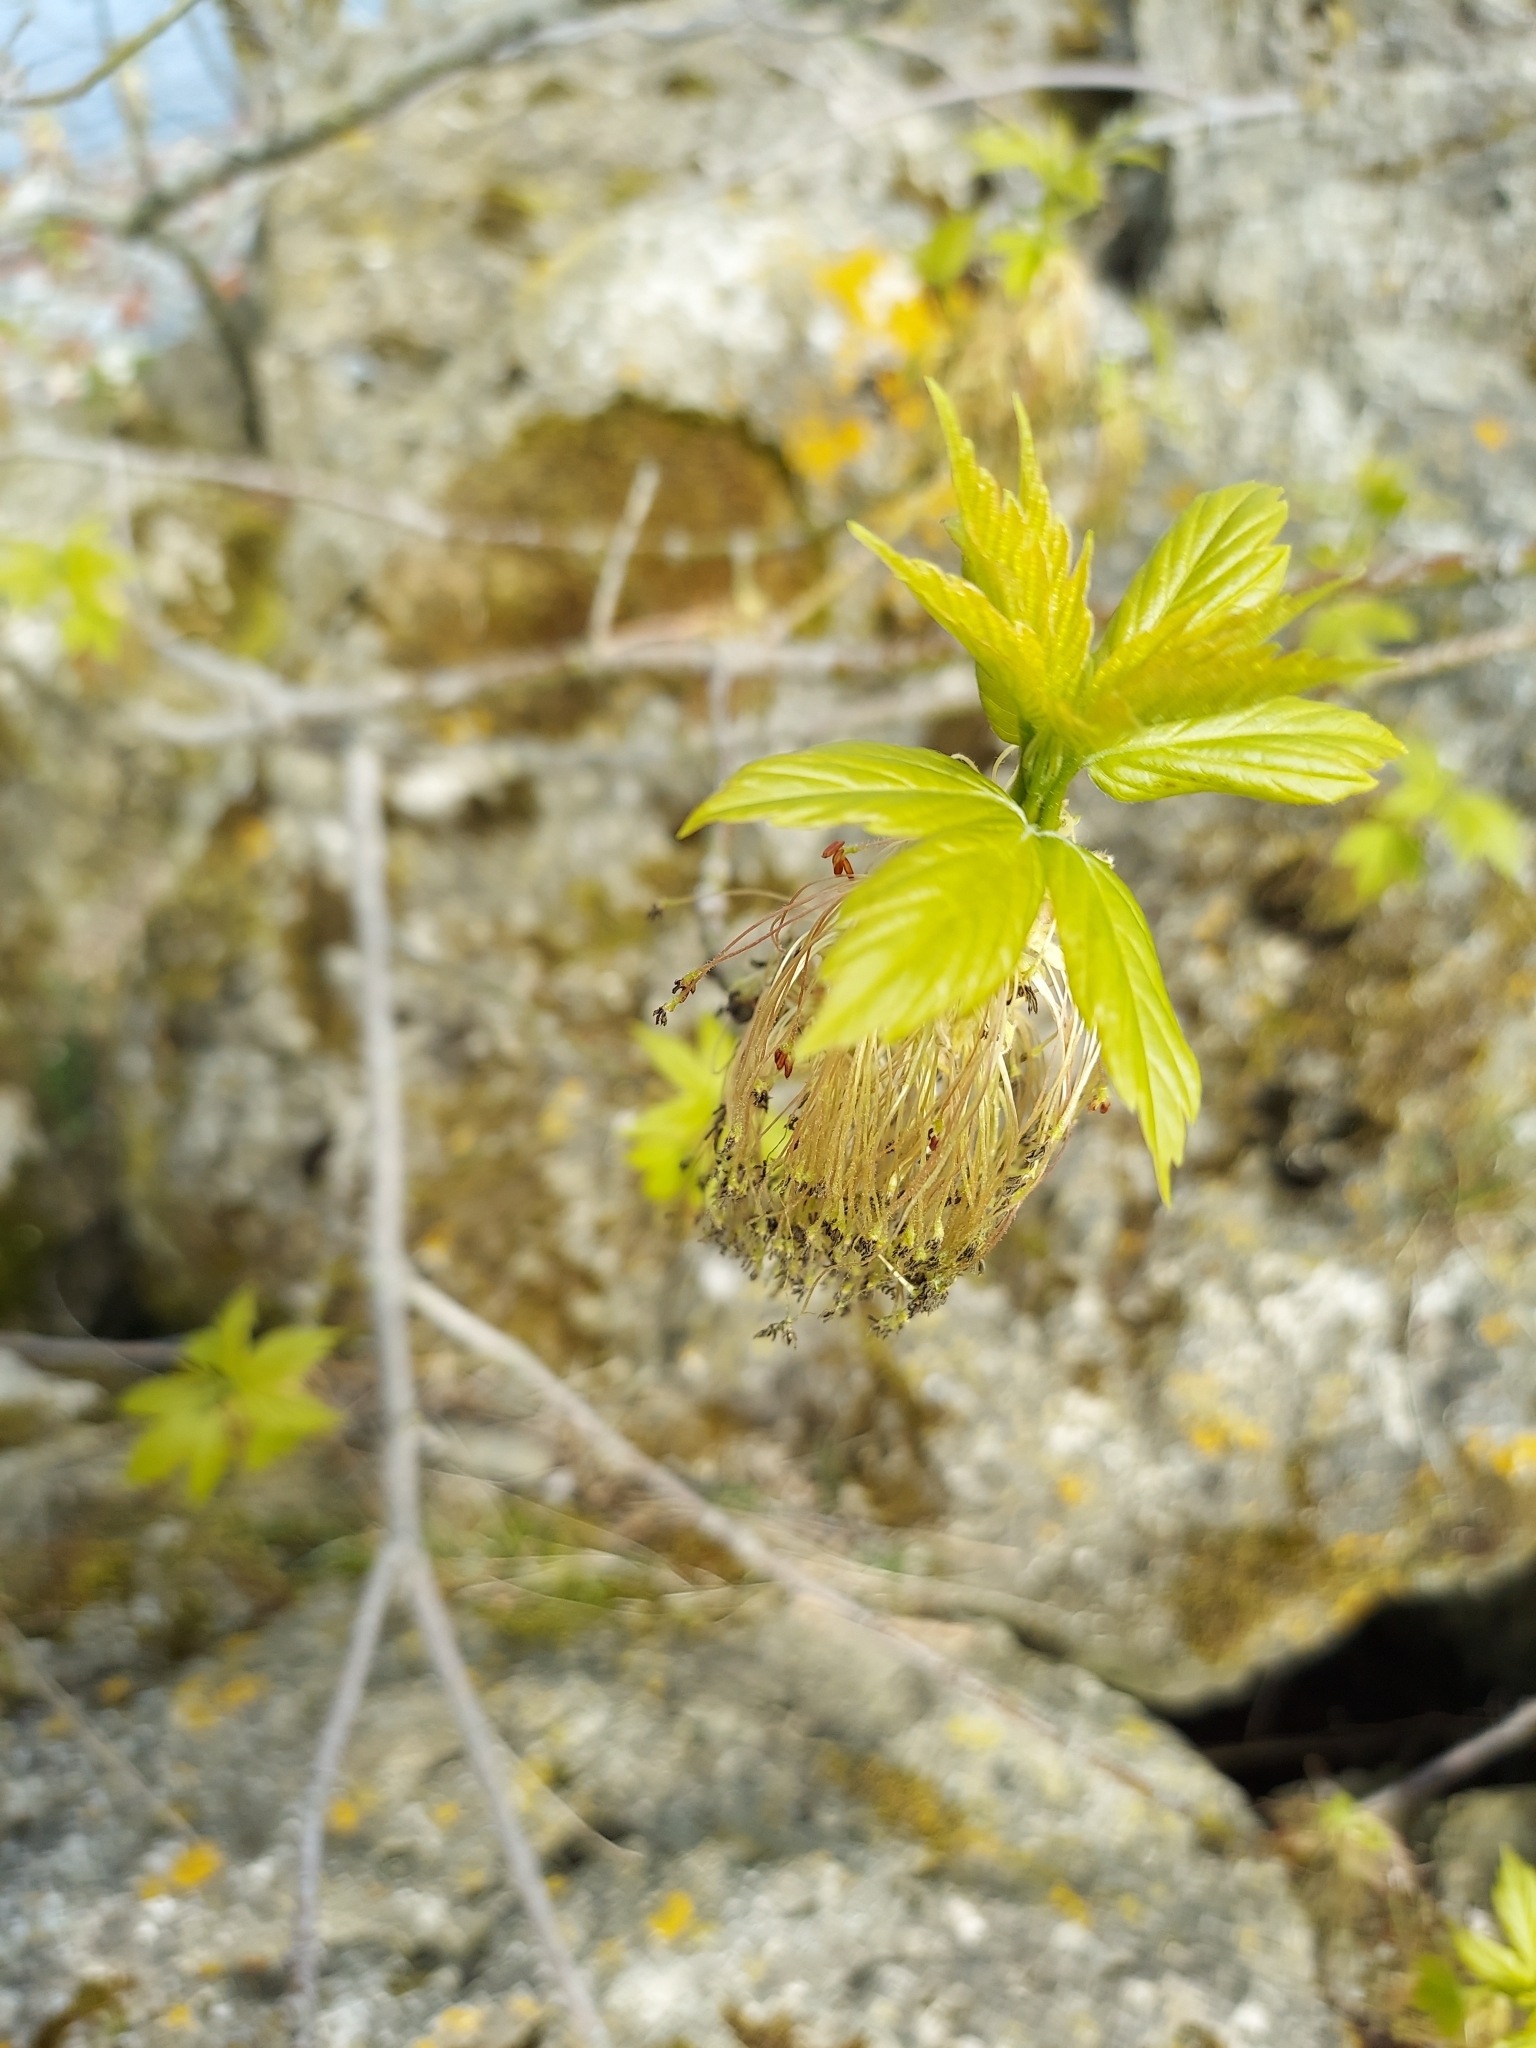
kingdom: Plantae
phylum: Tracheophyta
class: Magnoliopsida
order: Sapindales
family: Sapindaceae
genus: Acer
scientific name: Acer negundo
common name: Ashleaf maple
